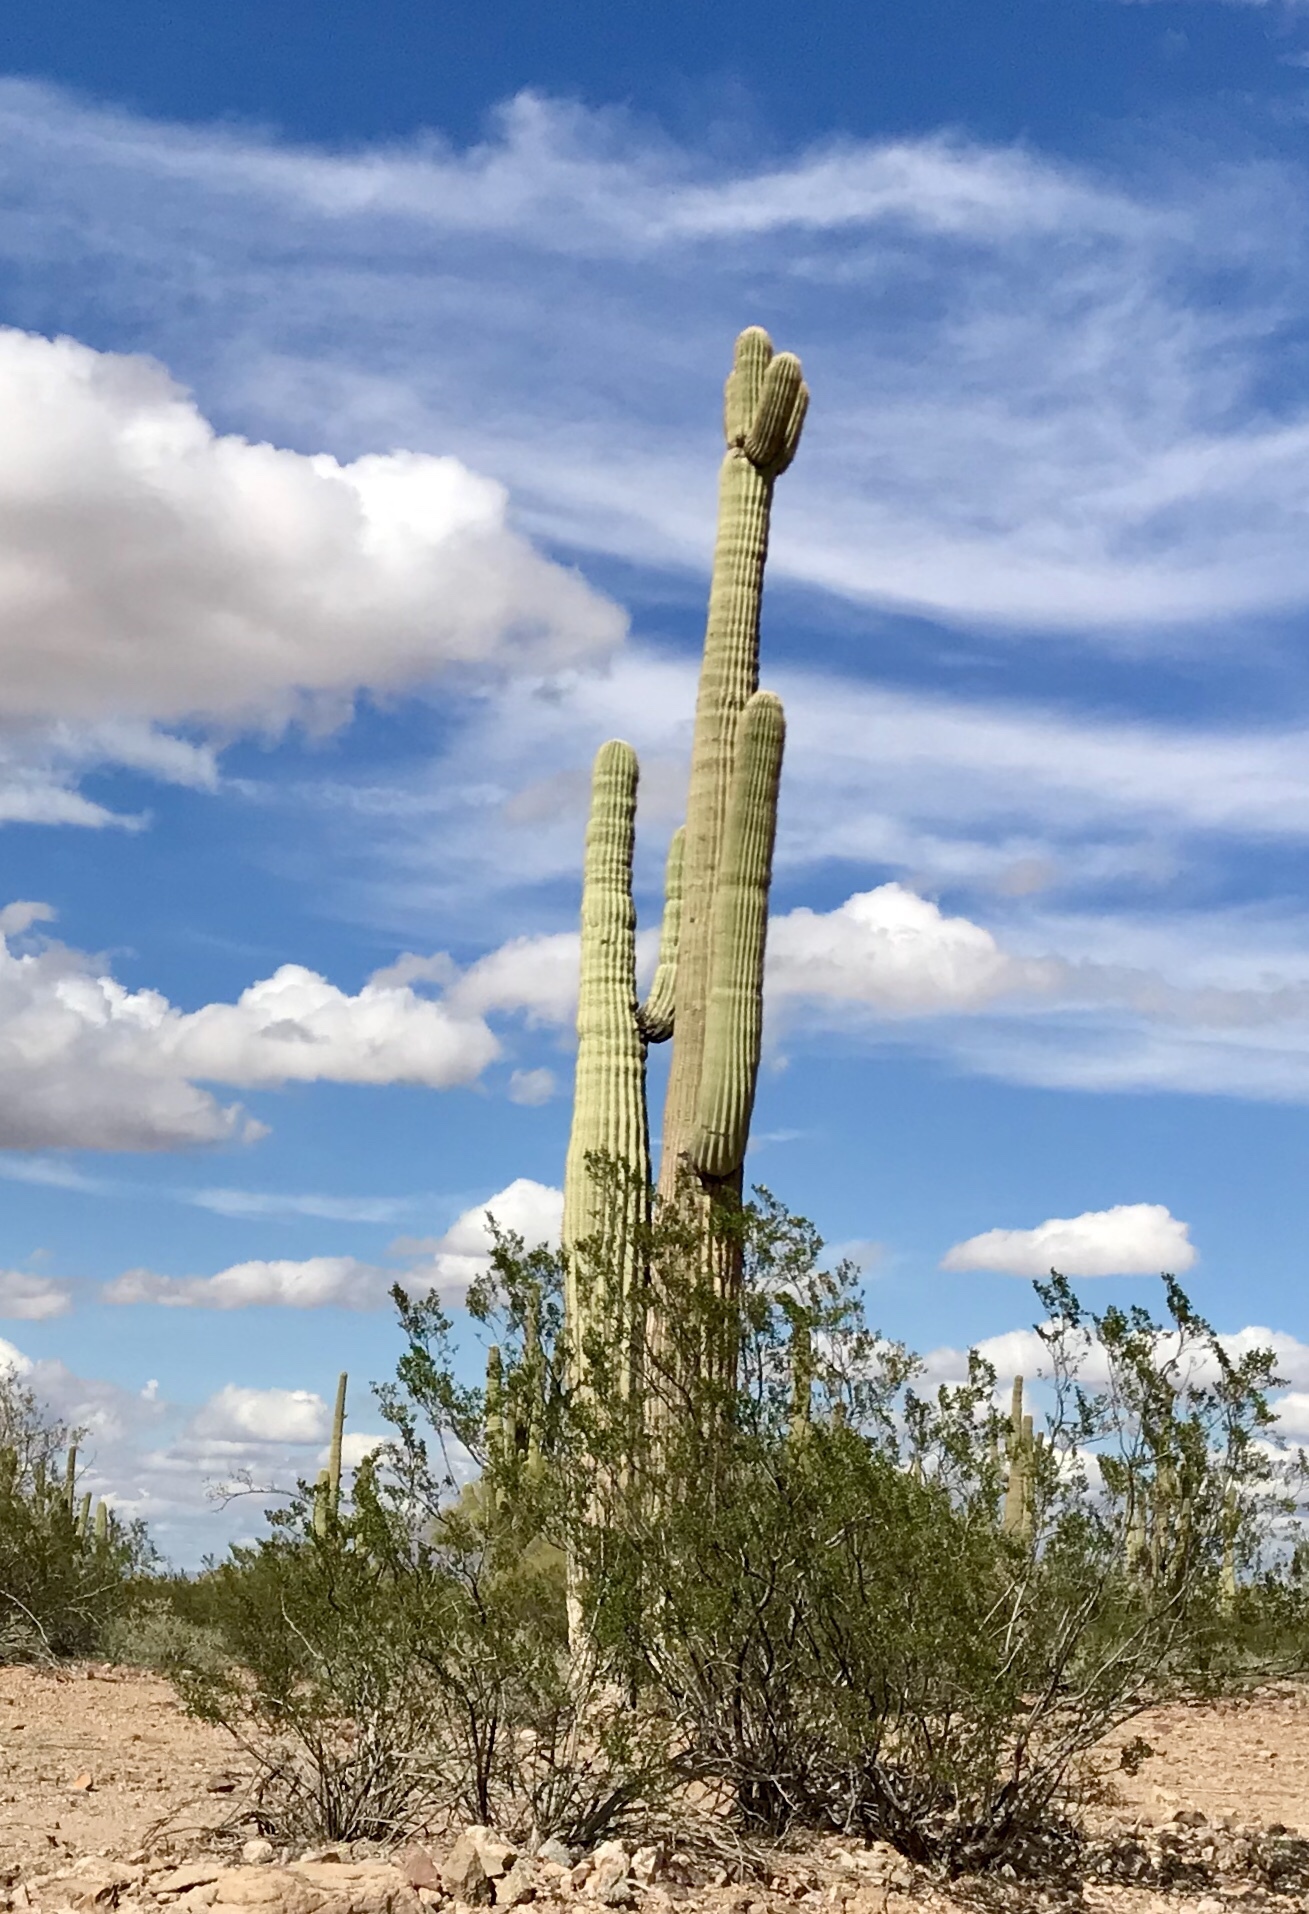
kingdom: Plantae
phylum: Tracheophyta
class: Magnoliopsida
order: Zygophyllales
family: Zygophyllaceae
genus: Larrea
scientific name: Larrea tridentata
